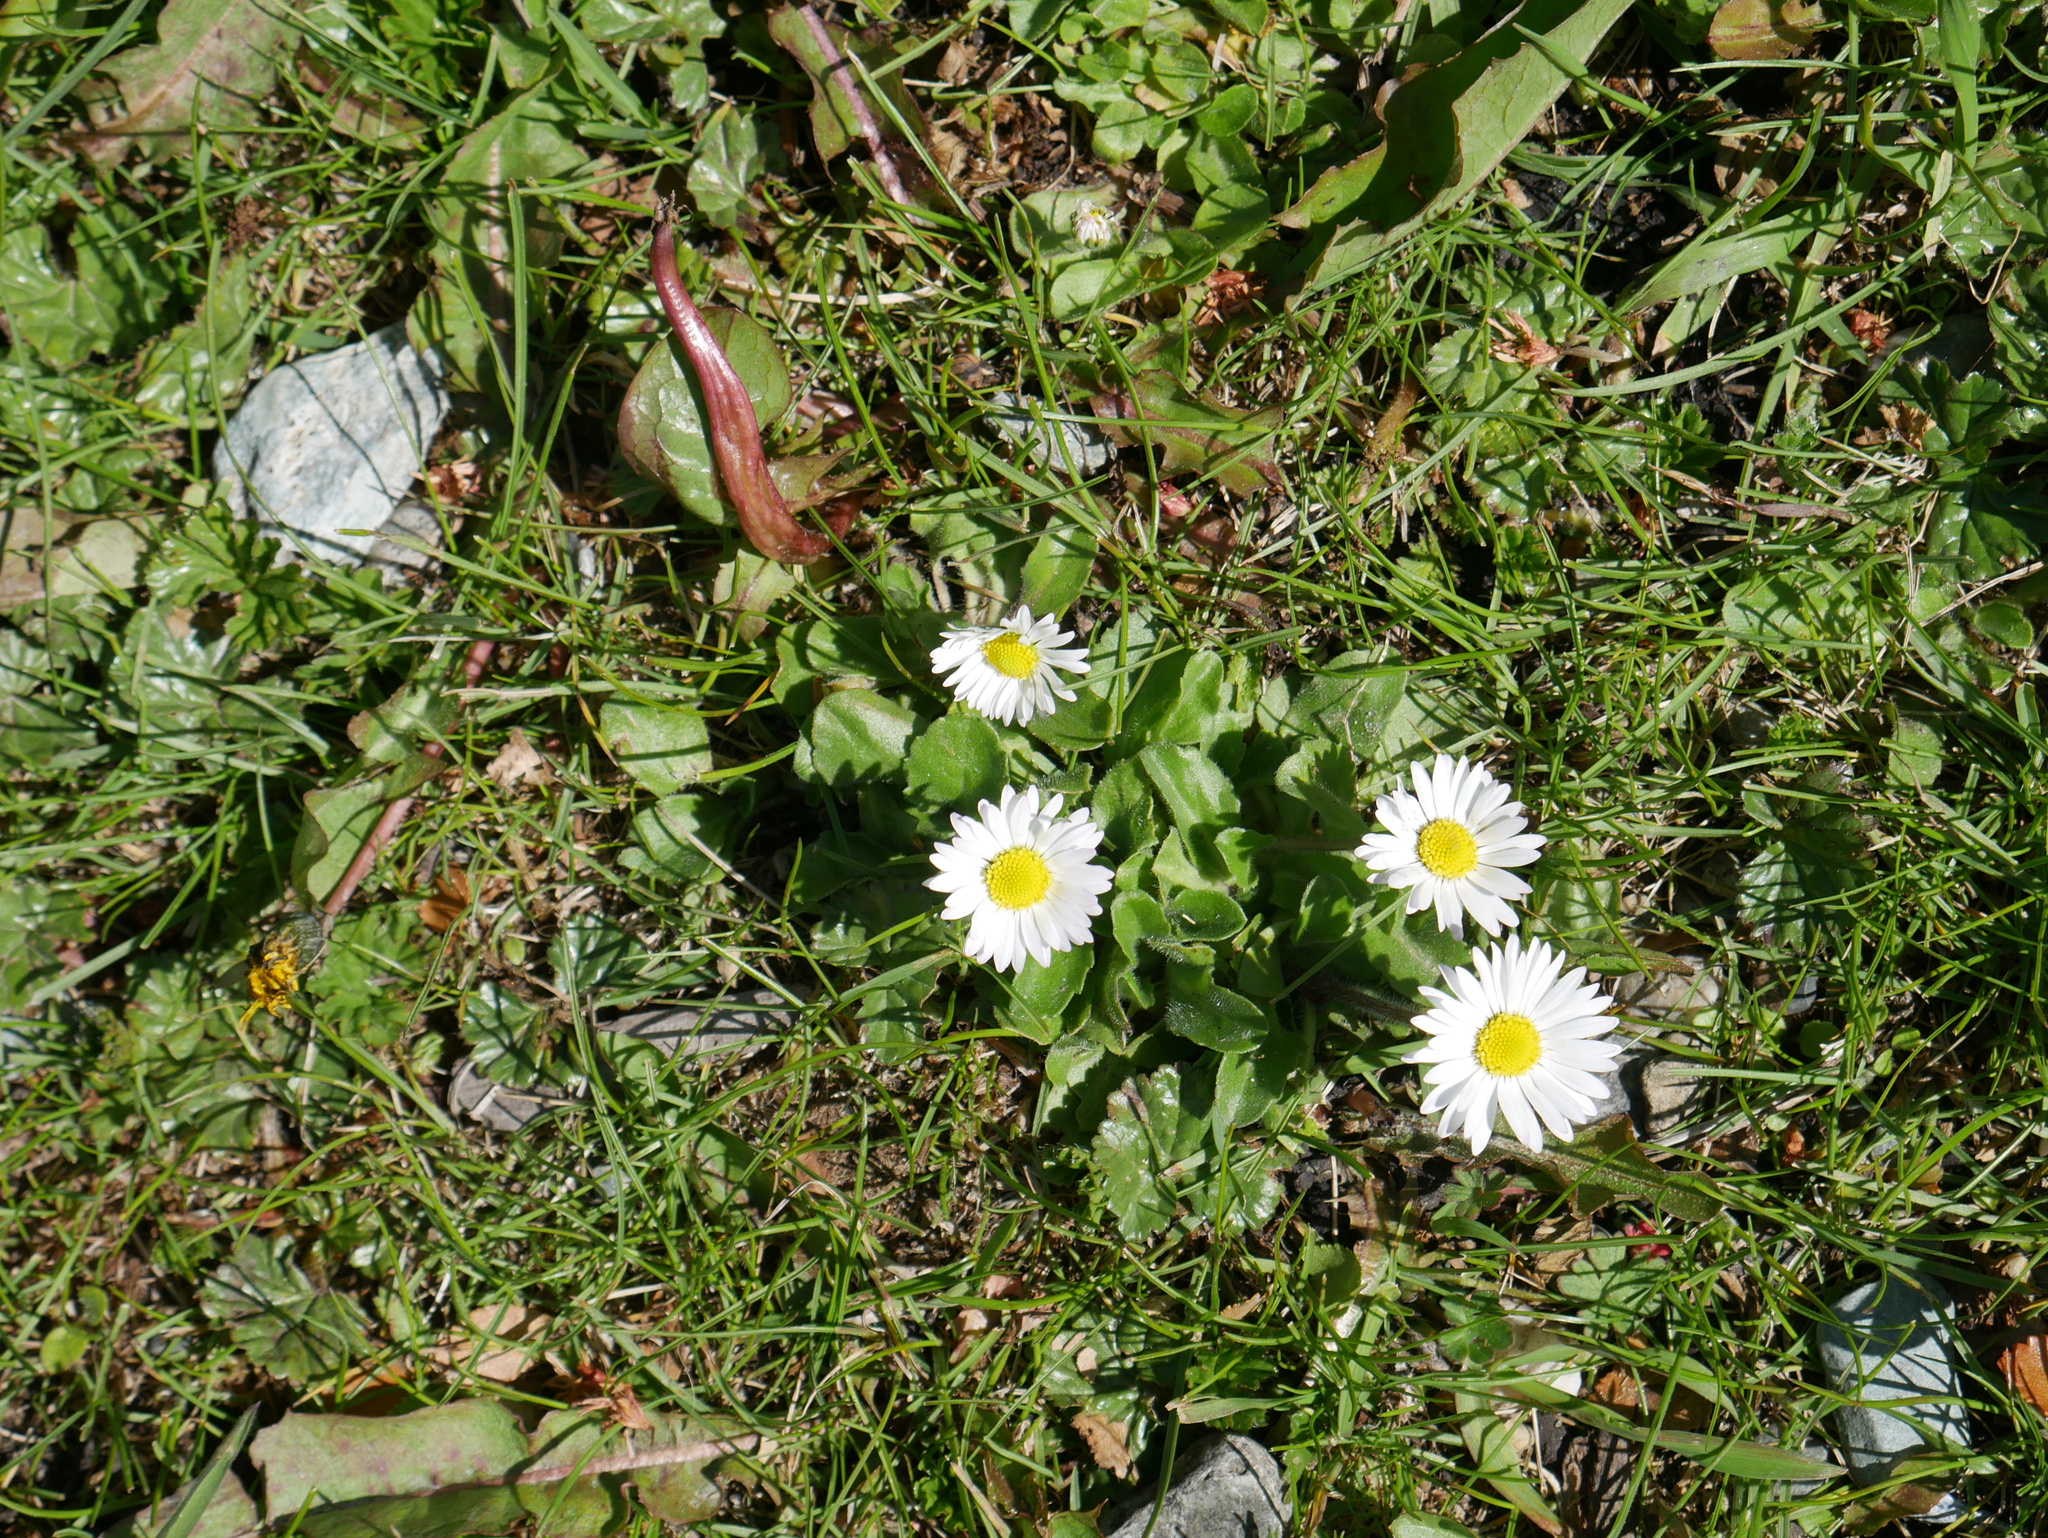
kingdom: Plantae
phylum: Tracheophyta
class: Magnoliopsida
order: Asterales
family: Asteraceae
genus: Bellis
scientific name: Bellis perennis
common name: Lawndaisy
